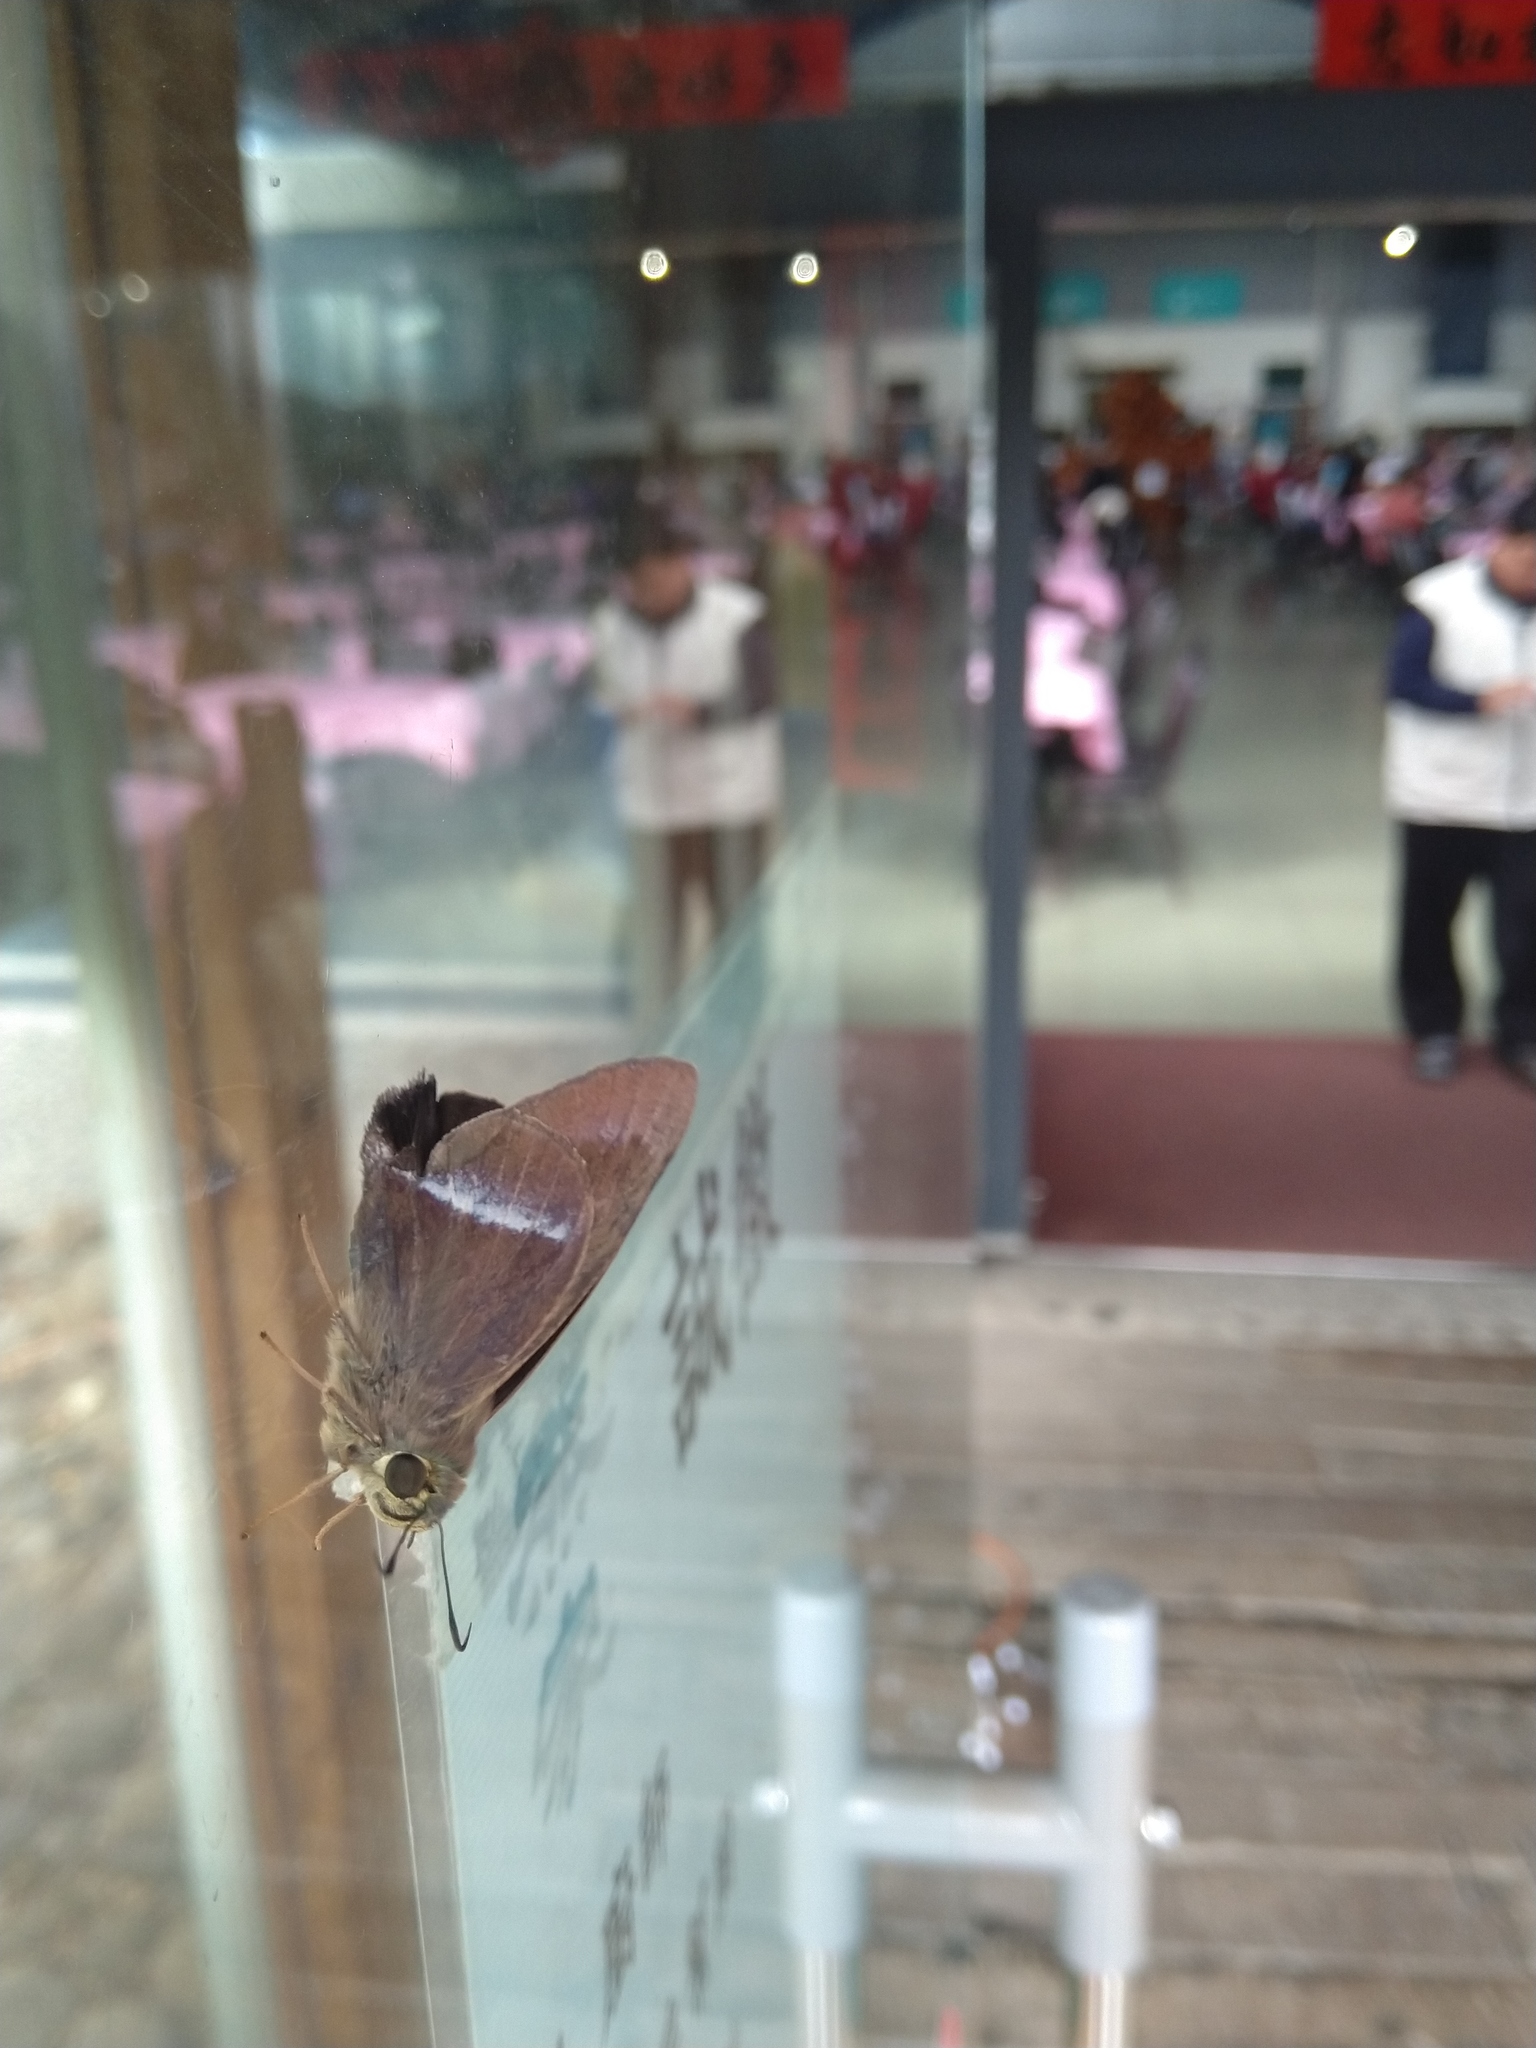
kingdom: Animalia
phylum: Arthropoda
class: Insecta
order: Lepidoptera
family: Hesperiidae
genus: Hasora
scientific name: Hasora chromus
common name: Common banded awl
